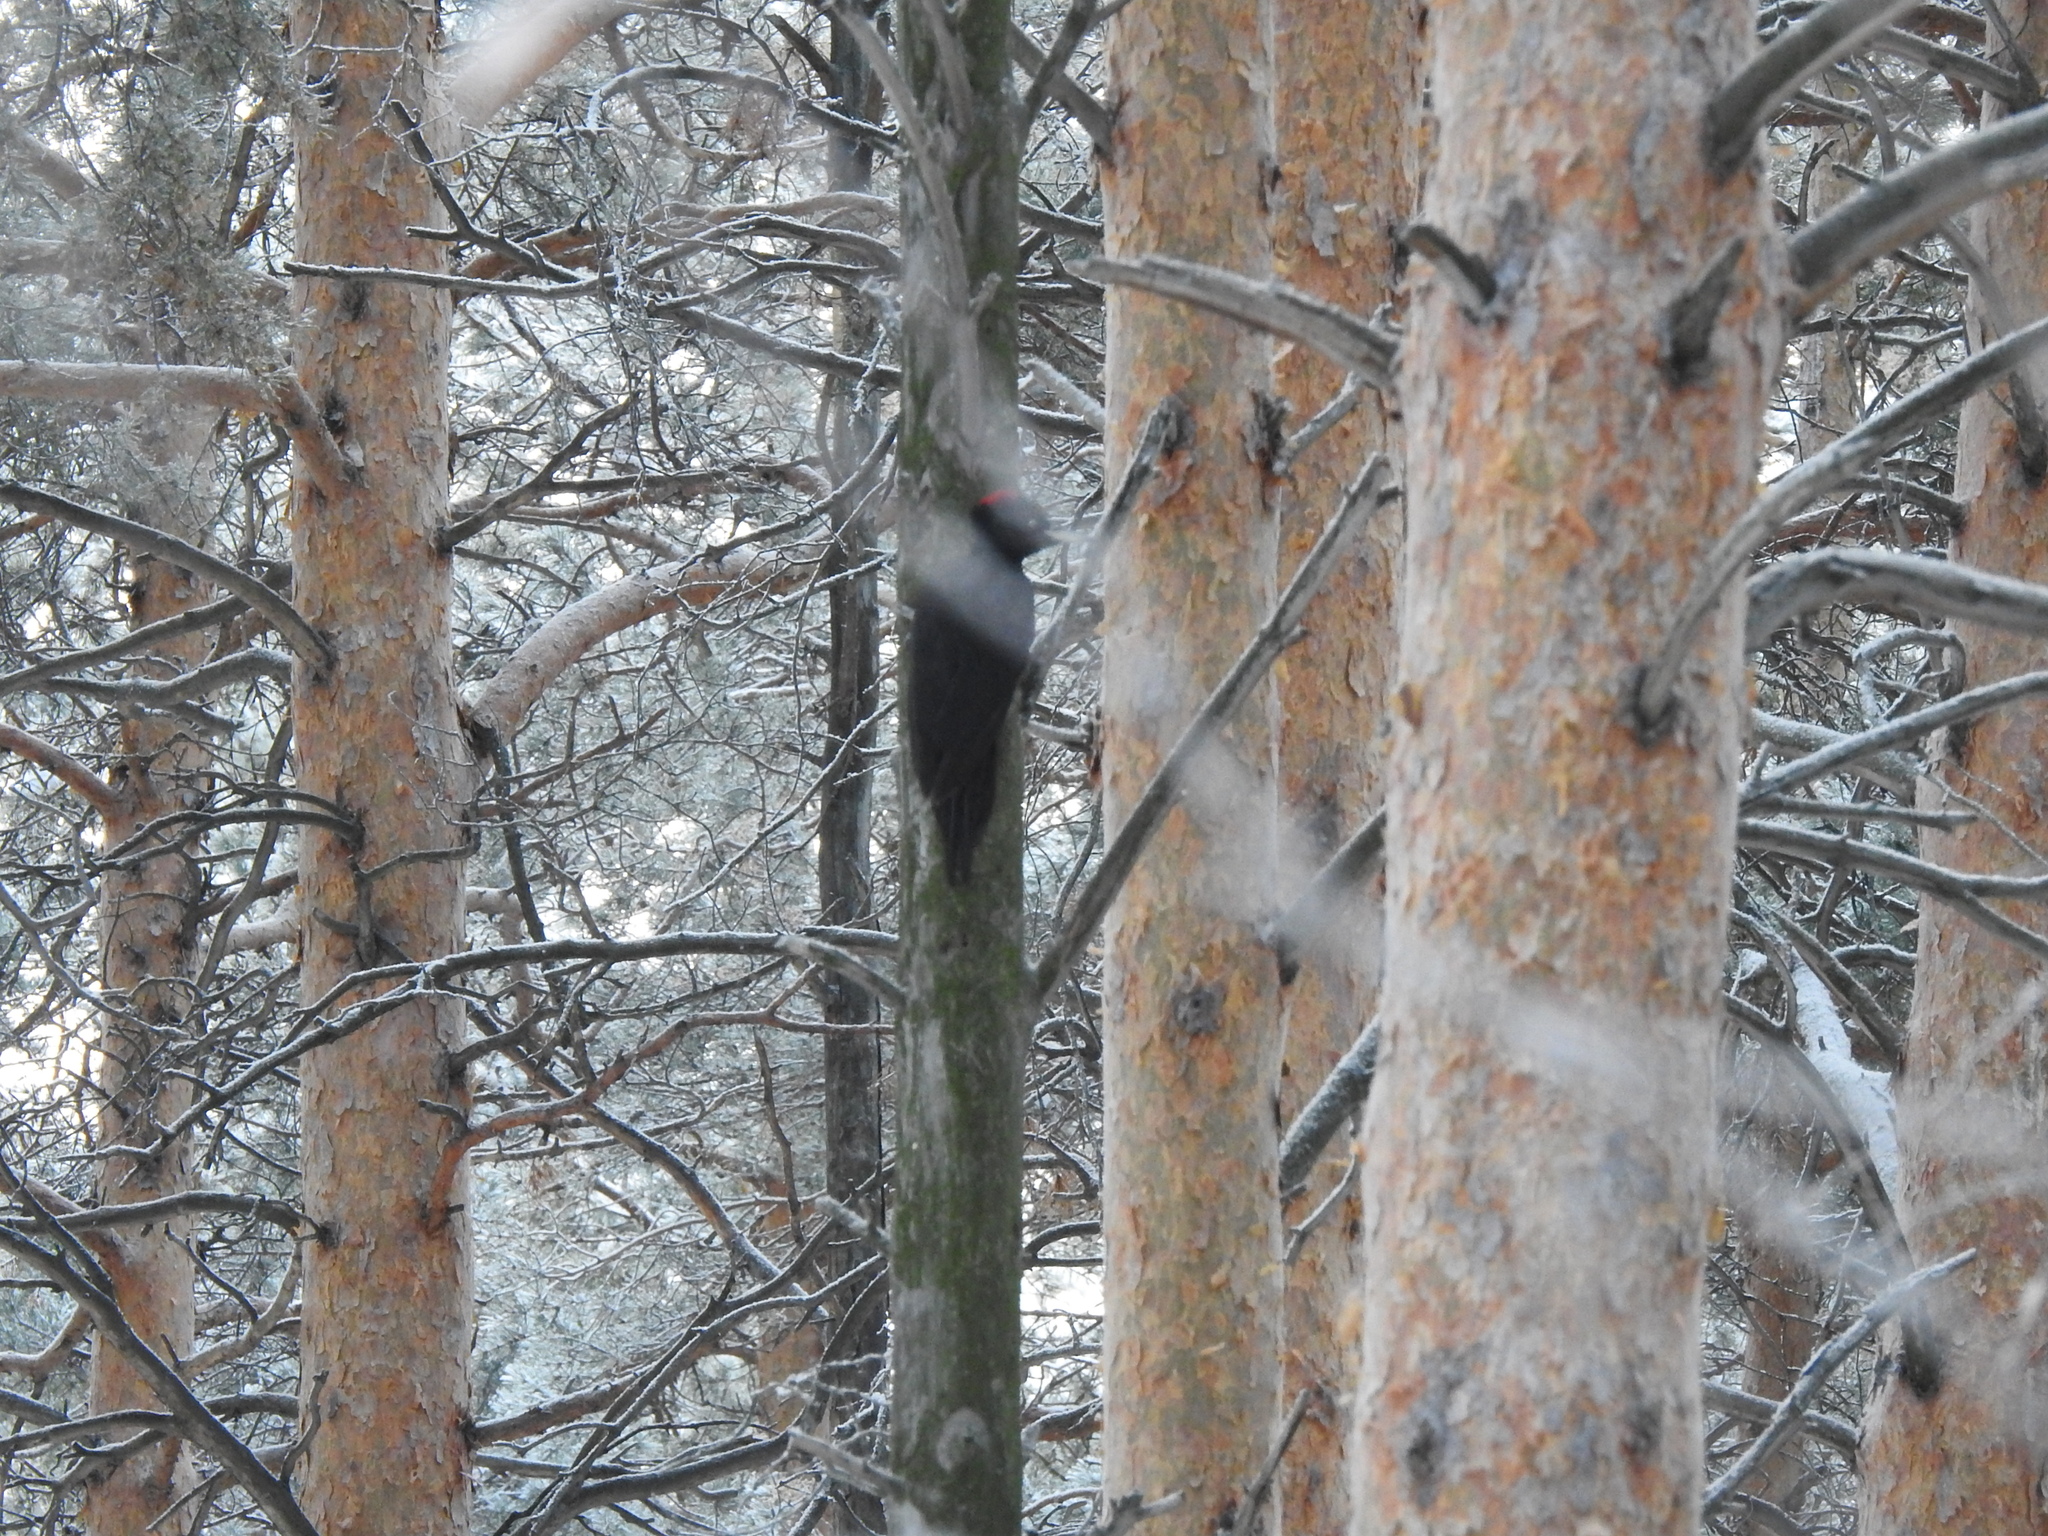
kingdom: Animalia
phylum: Chordata
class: Aves
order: Piciformes
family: Picidae
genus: Dryocopus
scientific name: Dryocopus martius
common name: Black woodpecker
